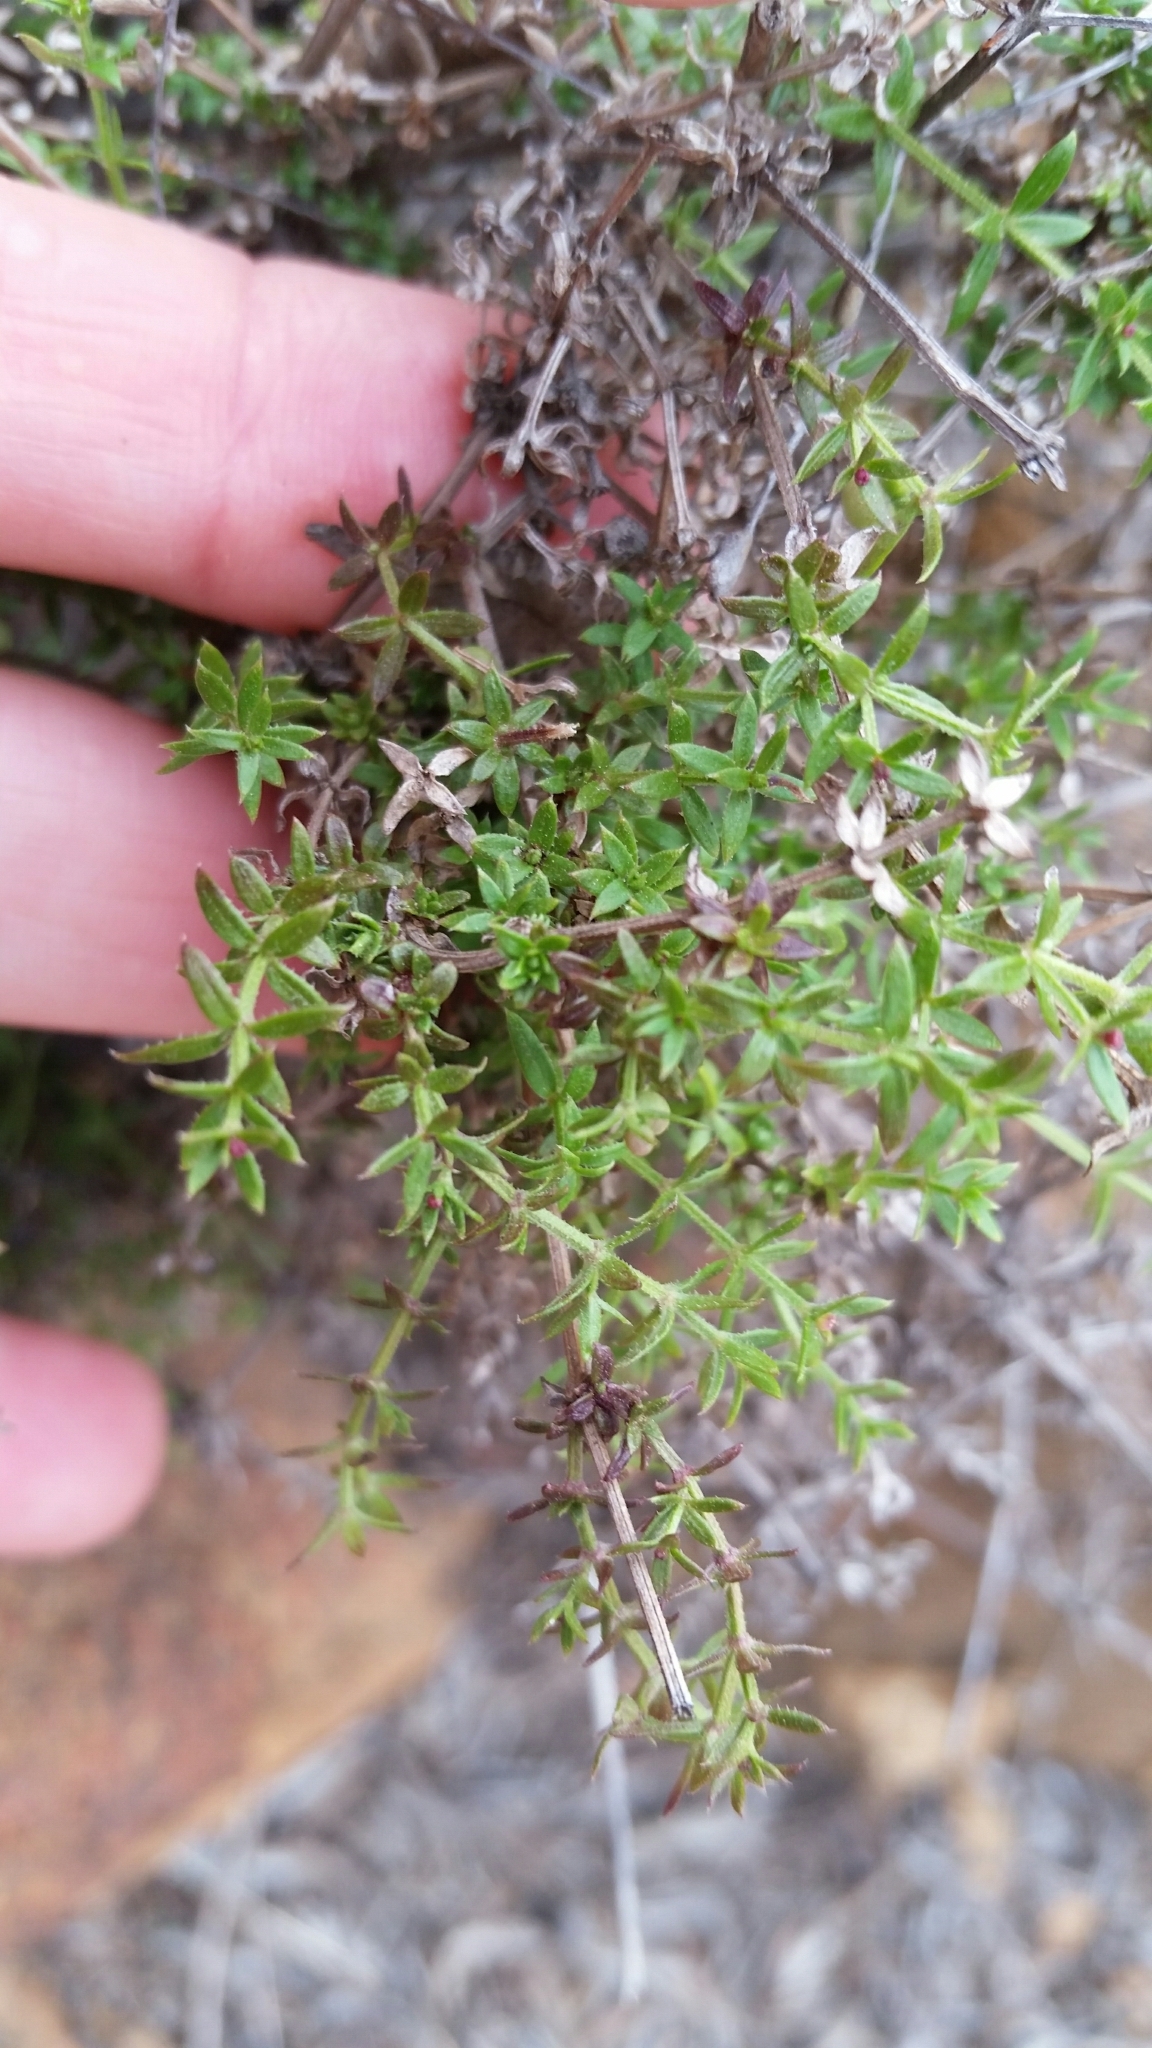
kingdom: Plantae
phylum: Tracheophyta
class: Magnoliopsida
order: Gentianales
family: Rubiaceae
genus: Galium
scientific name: Galium nuttallii
